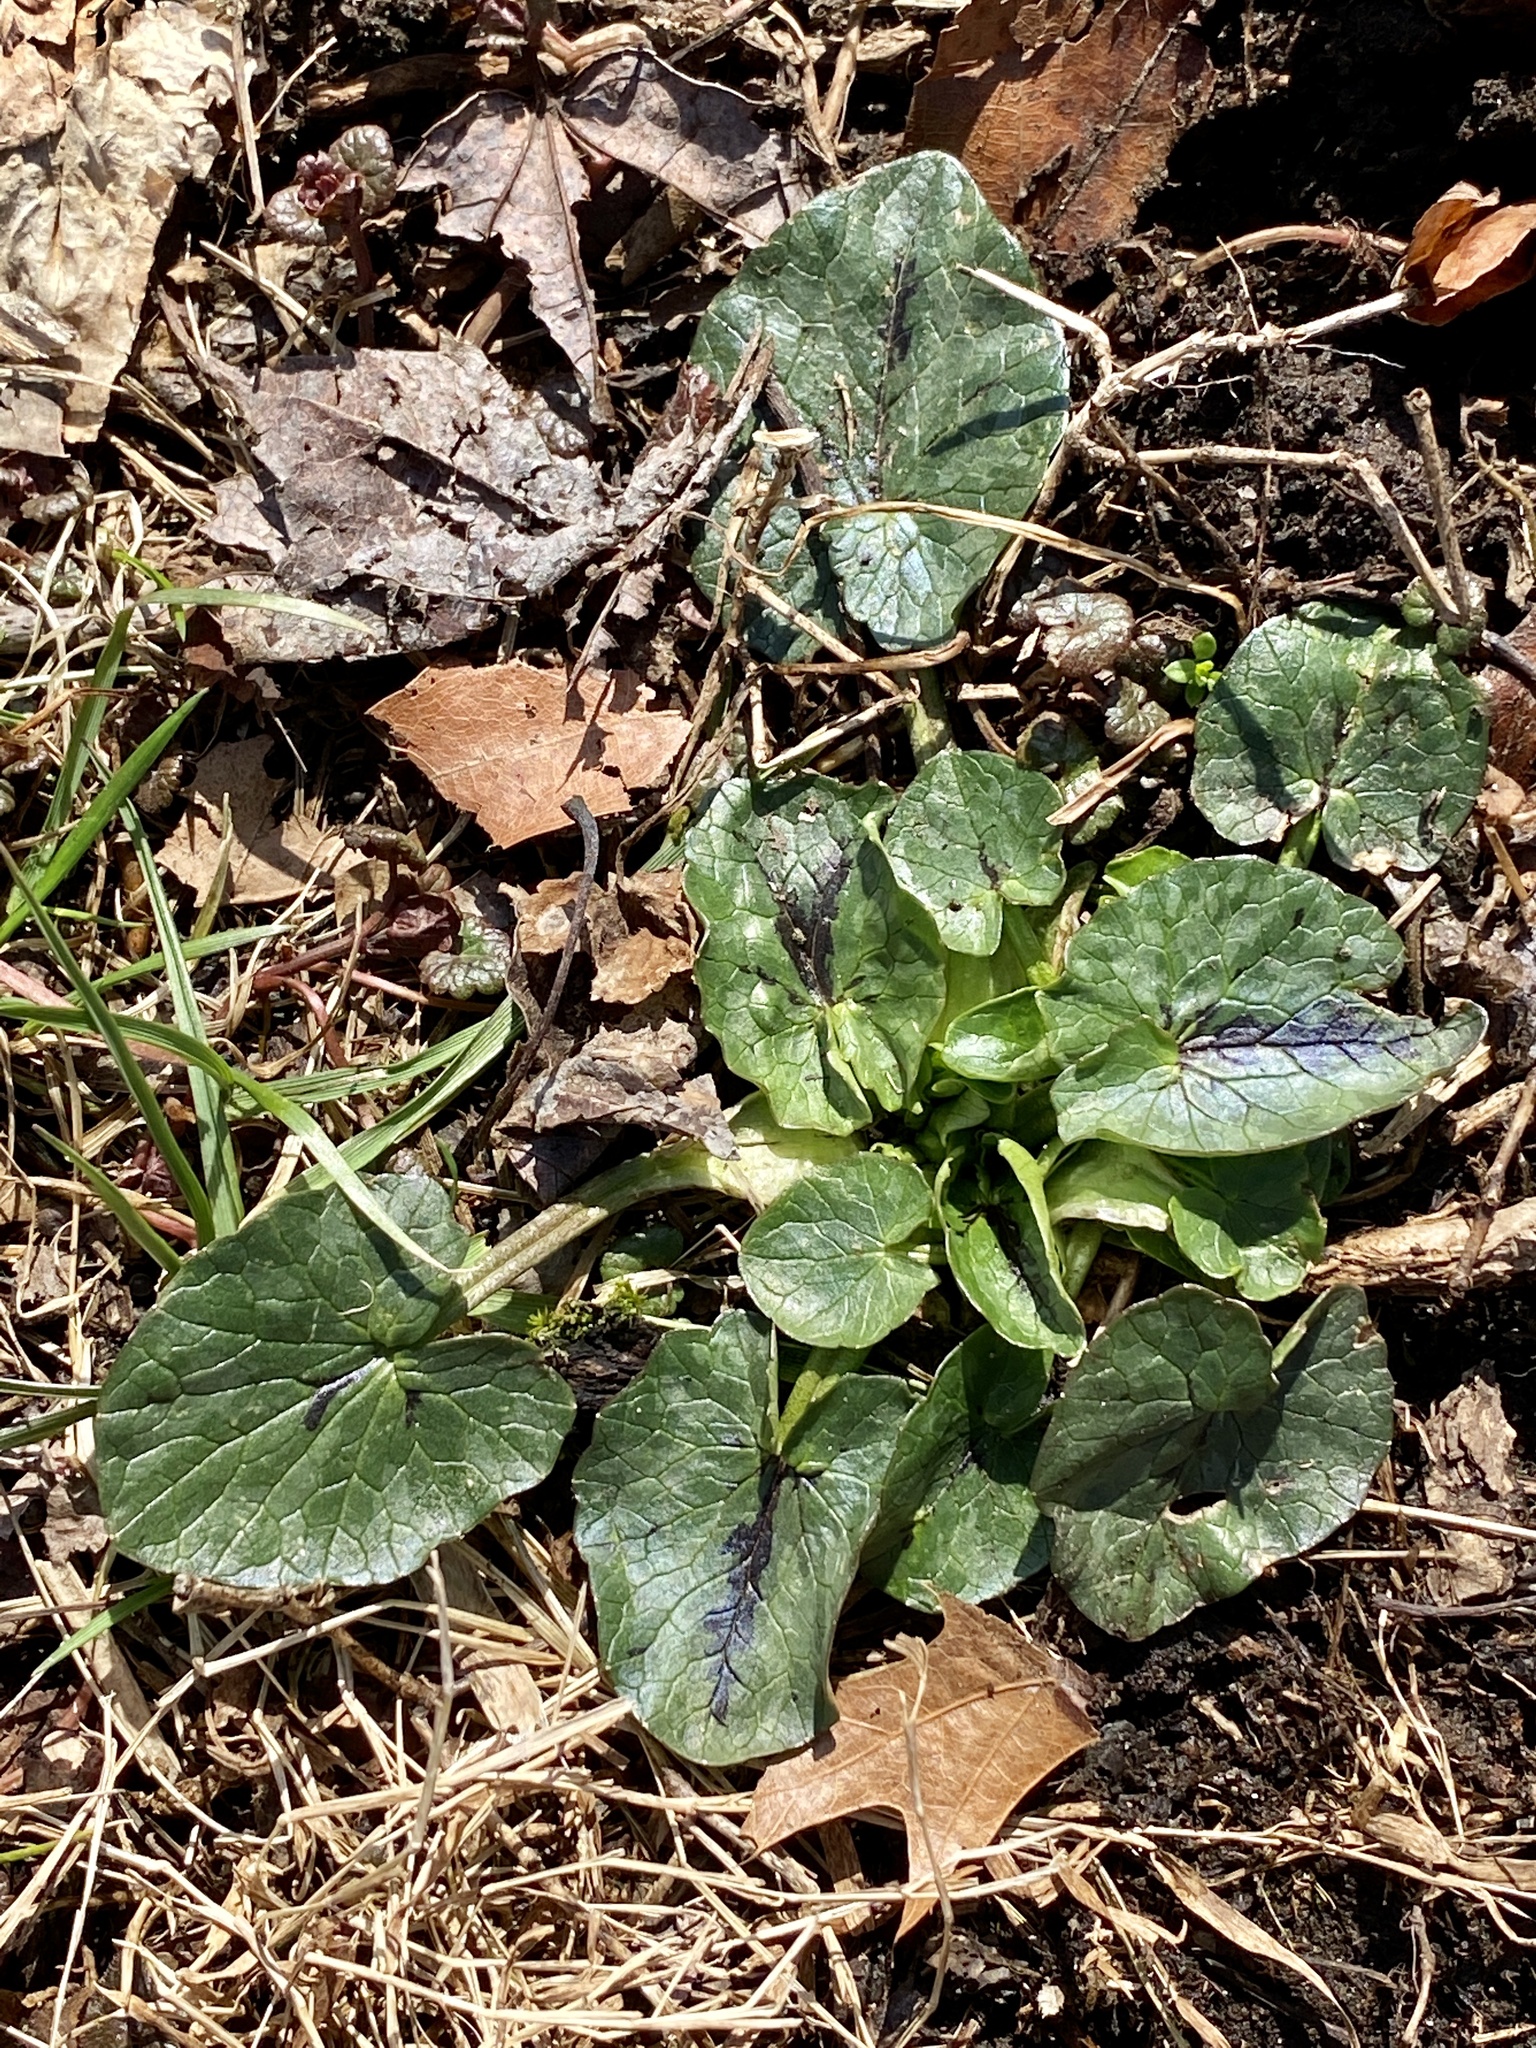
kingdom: Plantae
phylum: Tracheophyta
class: Magnoliopsida
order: Ranunculales
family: Ranunculaceae
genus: Ficaria
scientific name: Ficaria verna
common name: Lesser celandine
